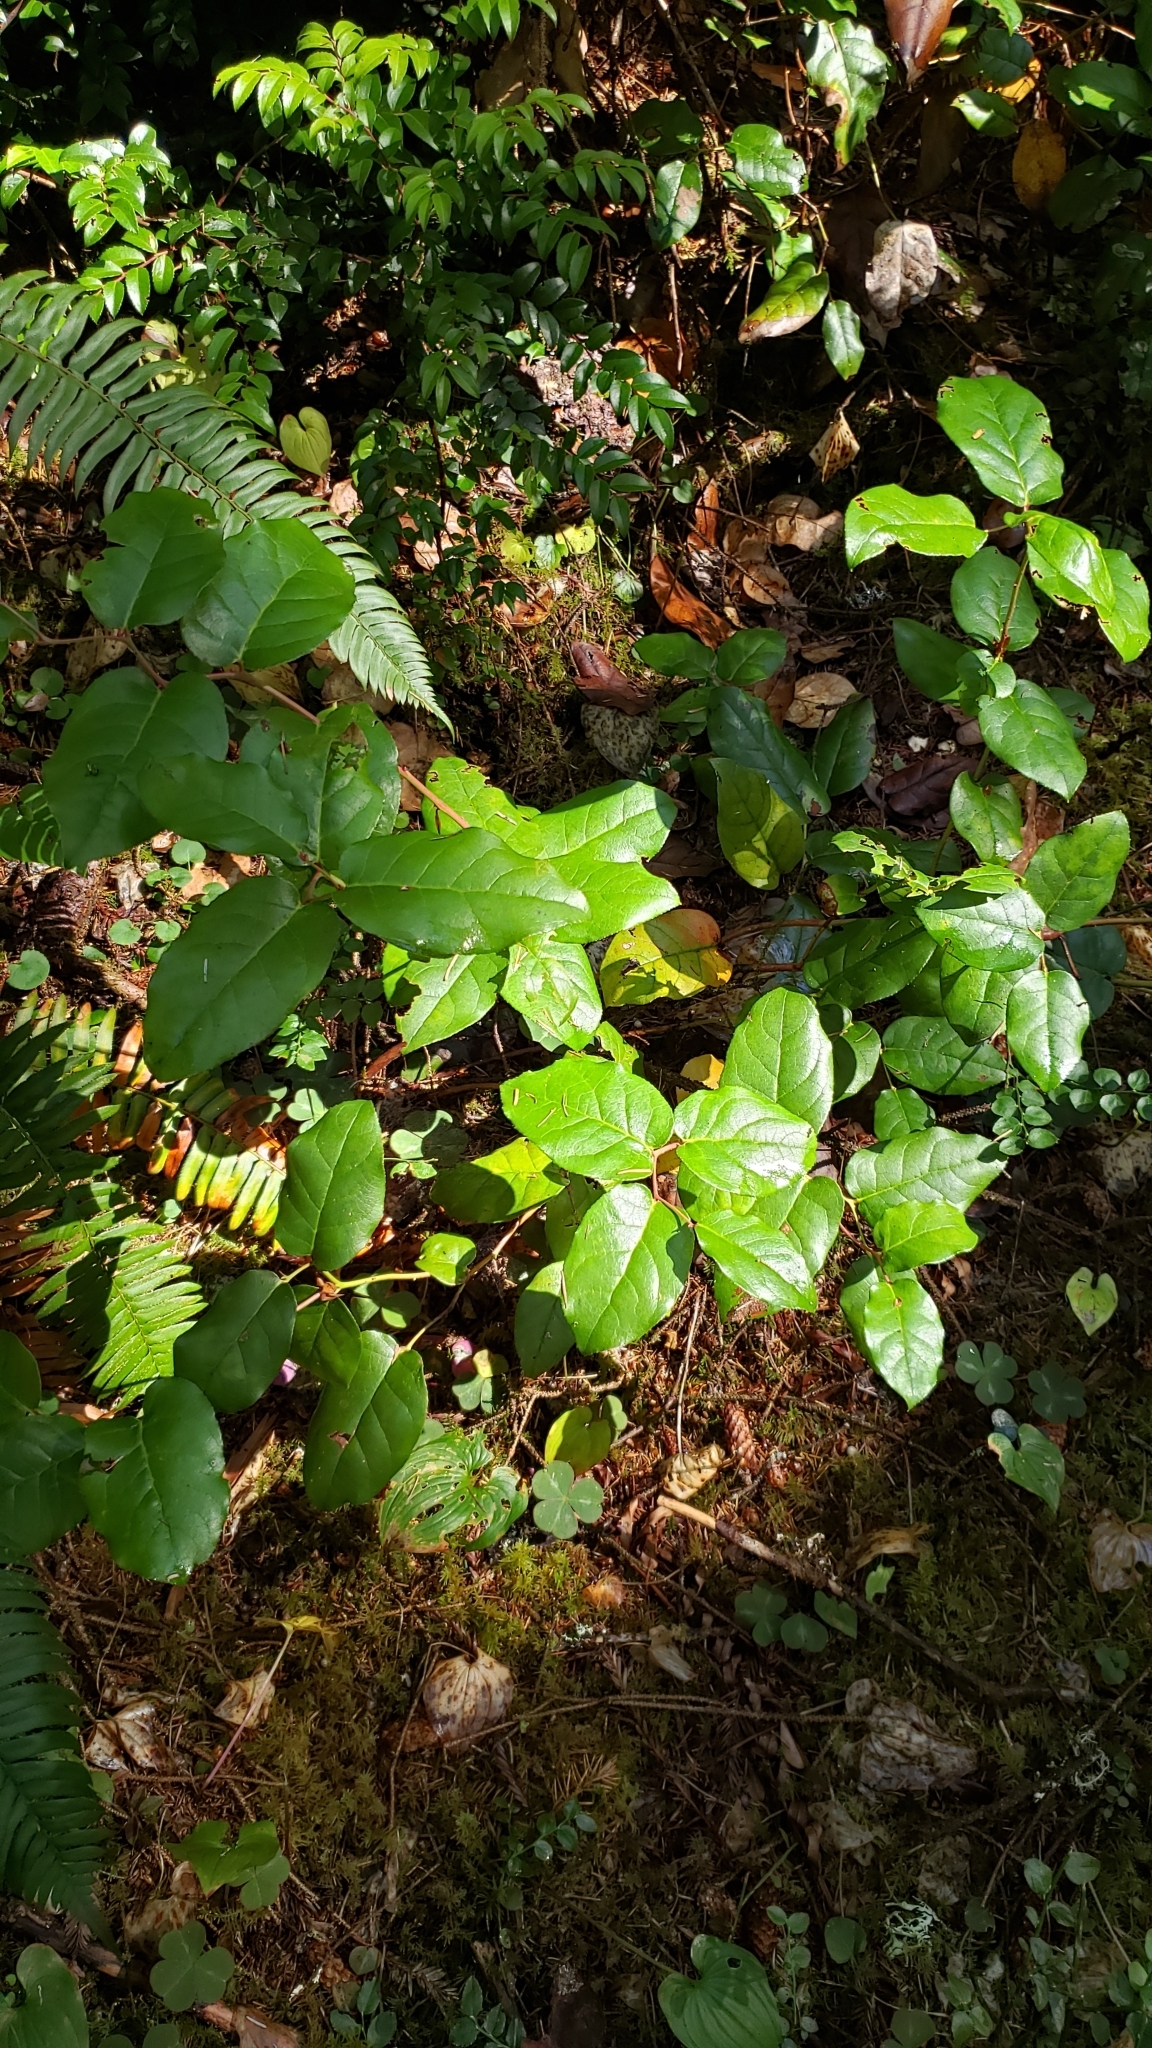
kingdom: Plantae
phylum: Tracheophyta
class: Magnoliopsida
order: Ericales
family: Ericaceae
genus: Gaultheria
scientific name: Gaultheria shallon
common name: Shallon
